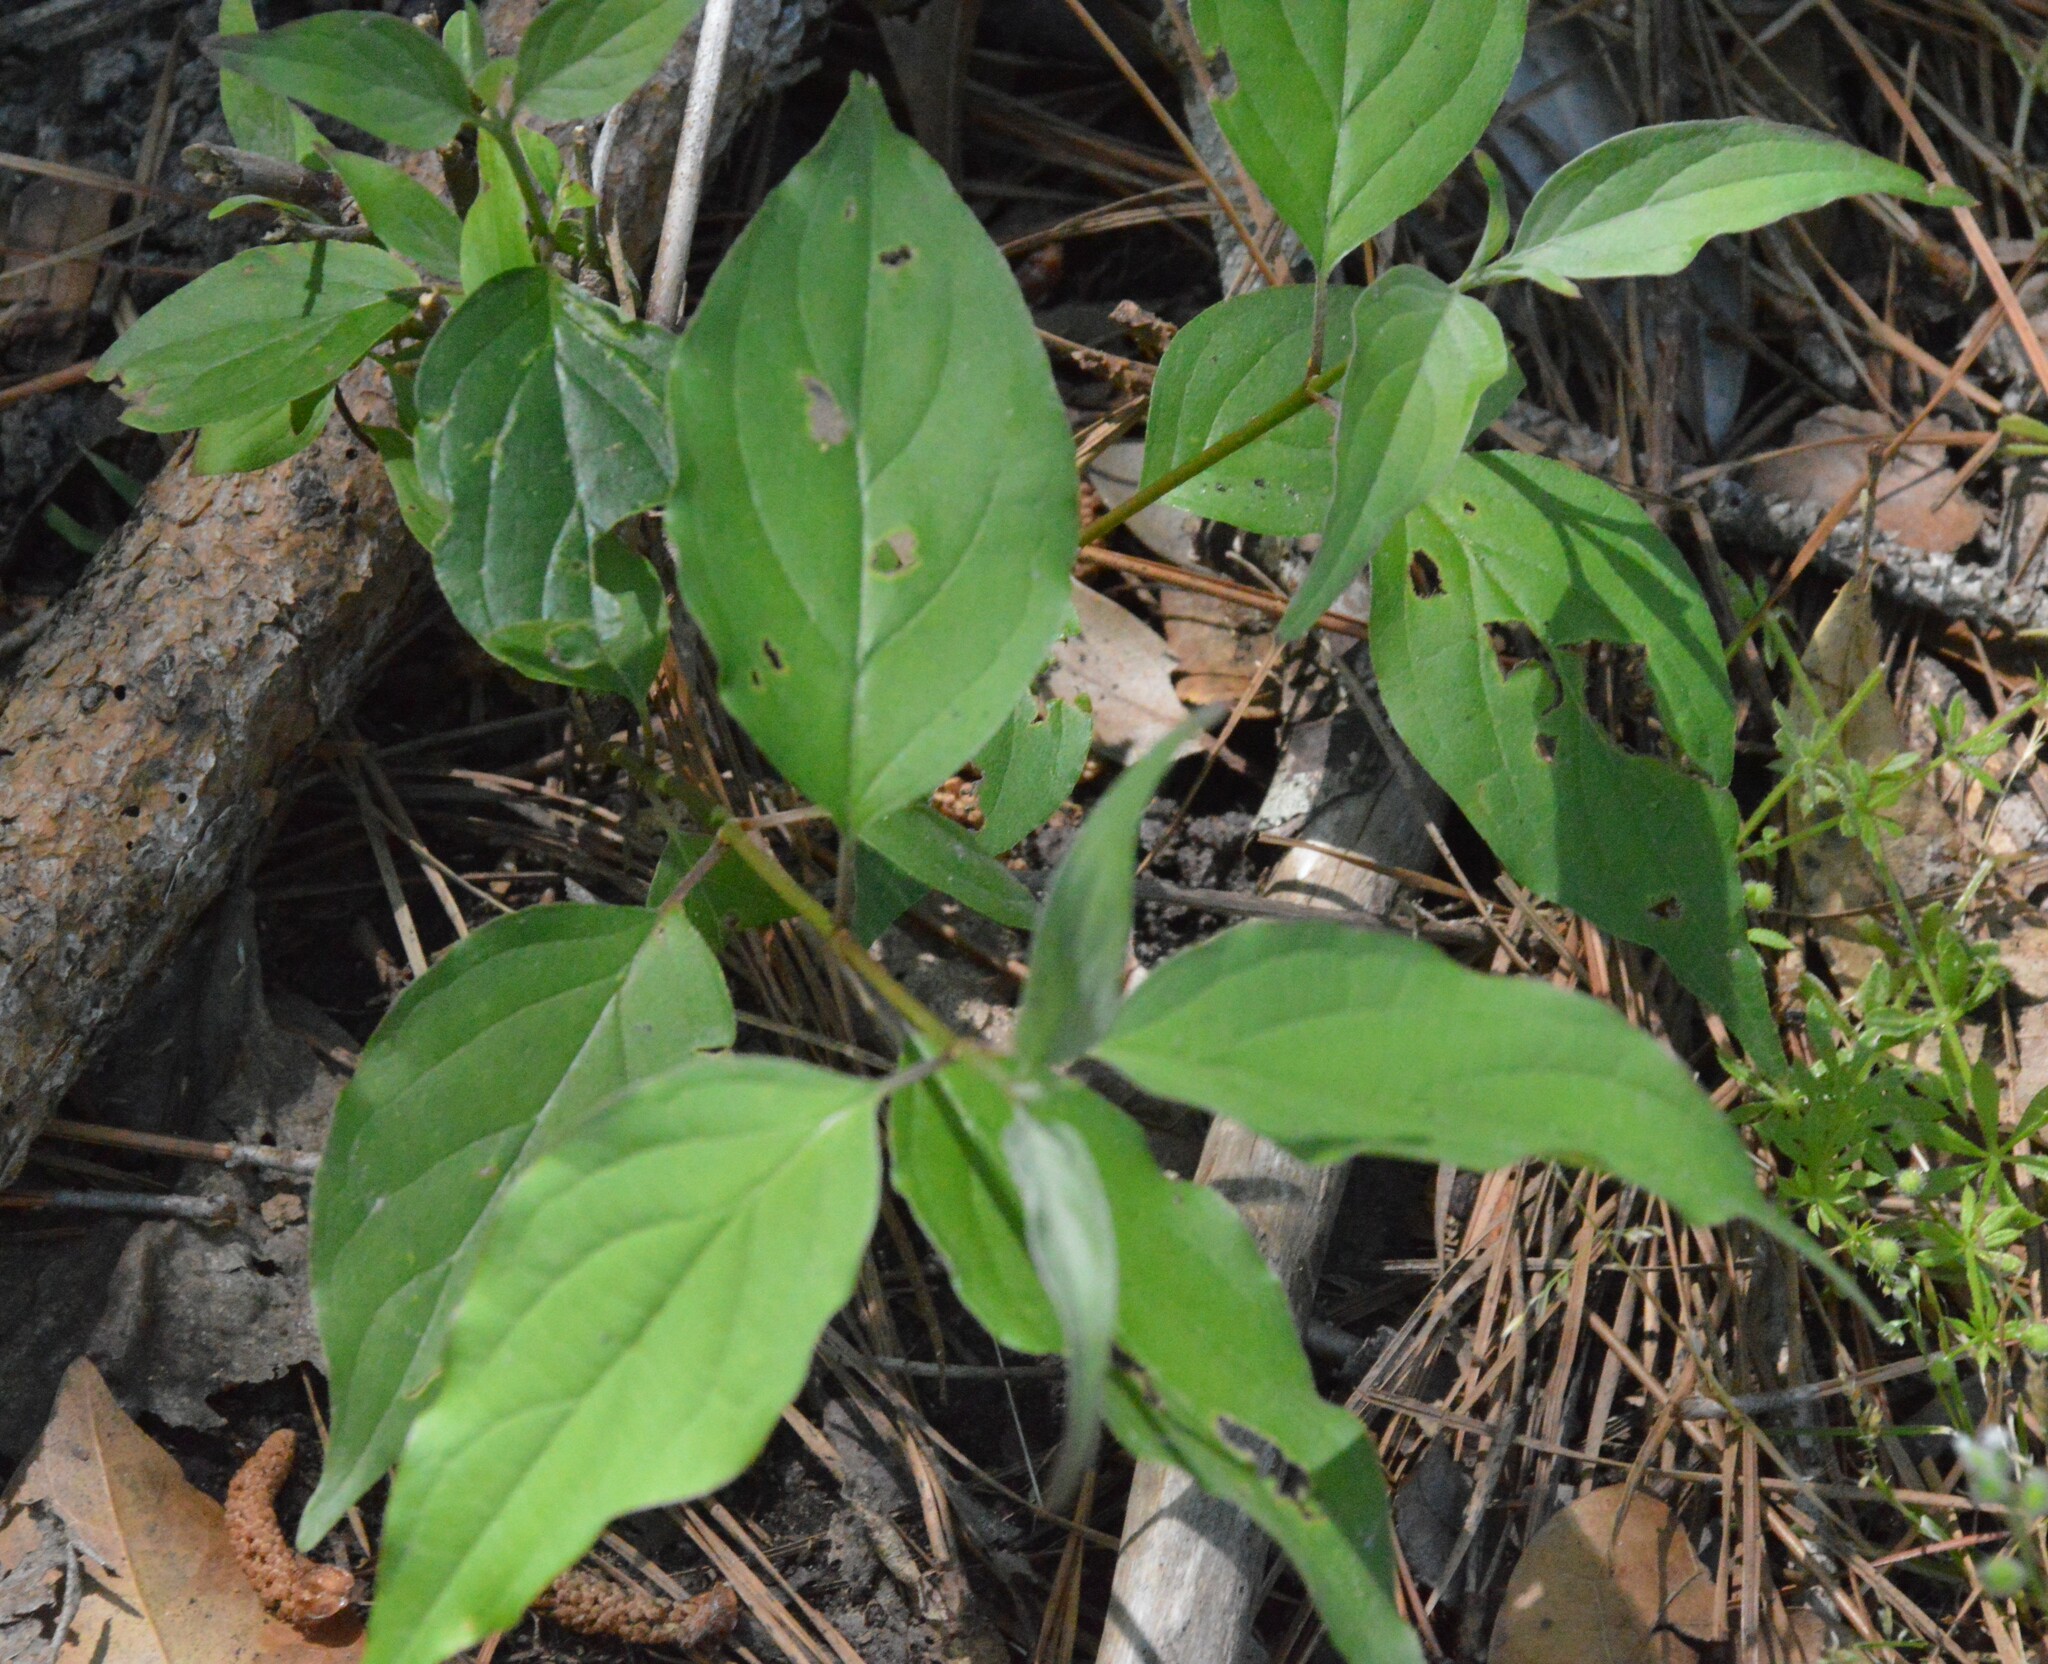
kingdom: Plantae
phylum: Tracheophyta
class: Magnoliopsida
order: Cornales
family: Cornaceae
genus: Cornus
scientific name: Cornus drummondii
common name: Rough-leaf dogwood
